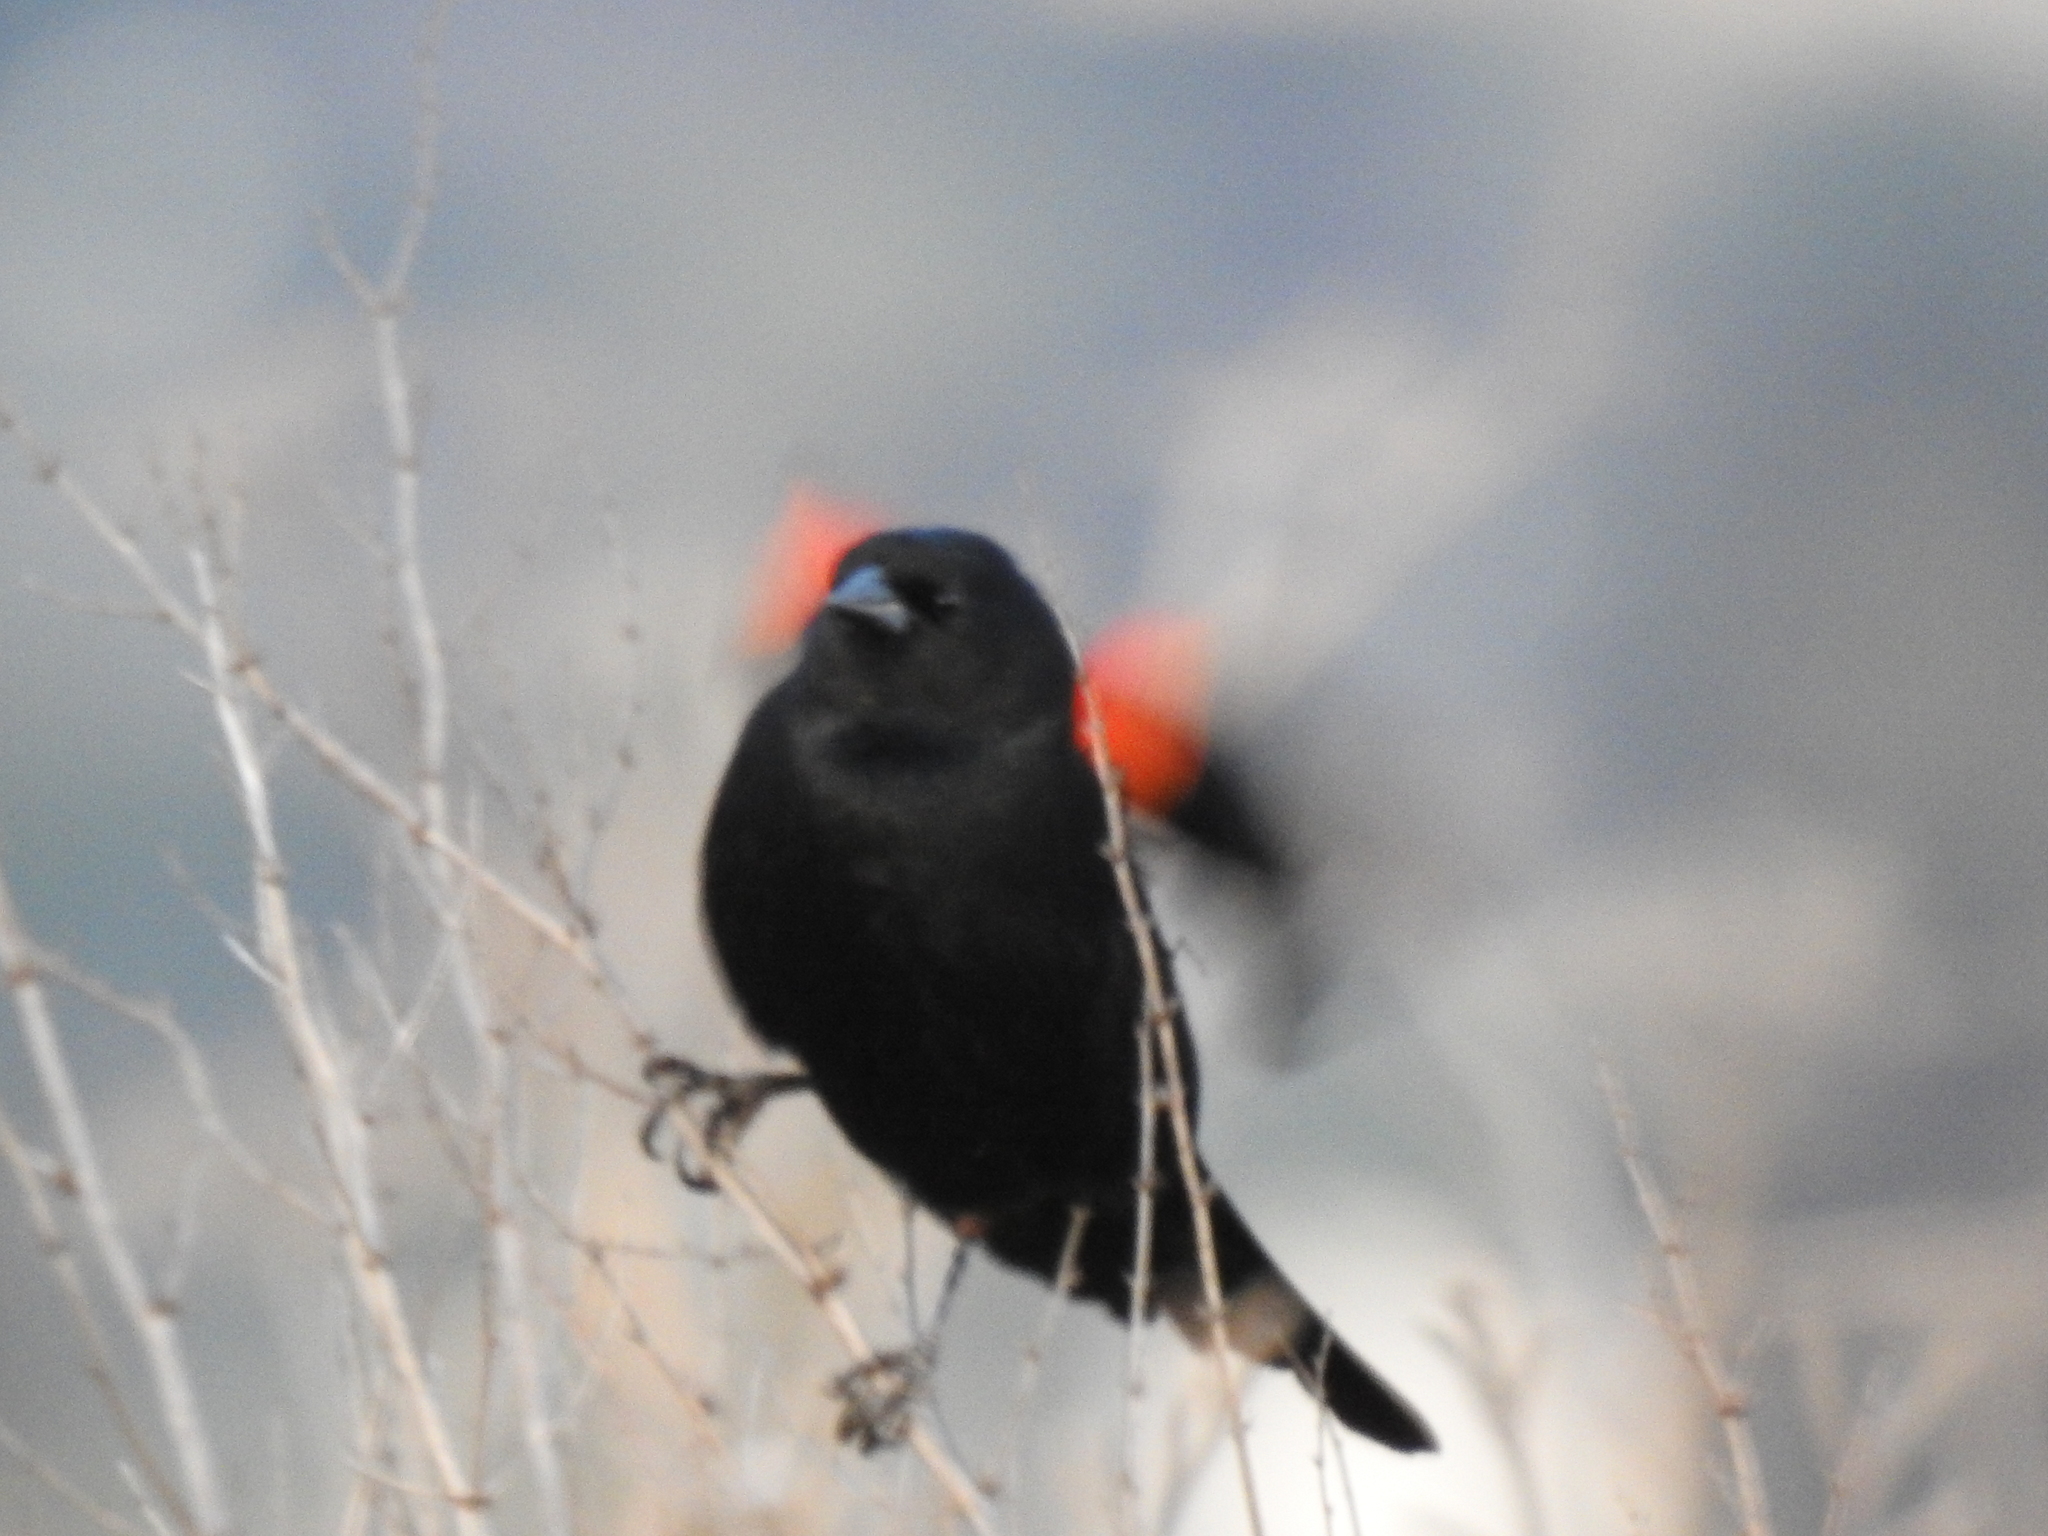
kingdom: Animalia
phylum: Chordata
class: Aves
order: Passeriformes
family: Icteridae
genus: Agelaius
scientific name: Agelaius phoeniceus
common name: Red-winged blackbird
